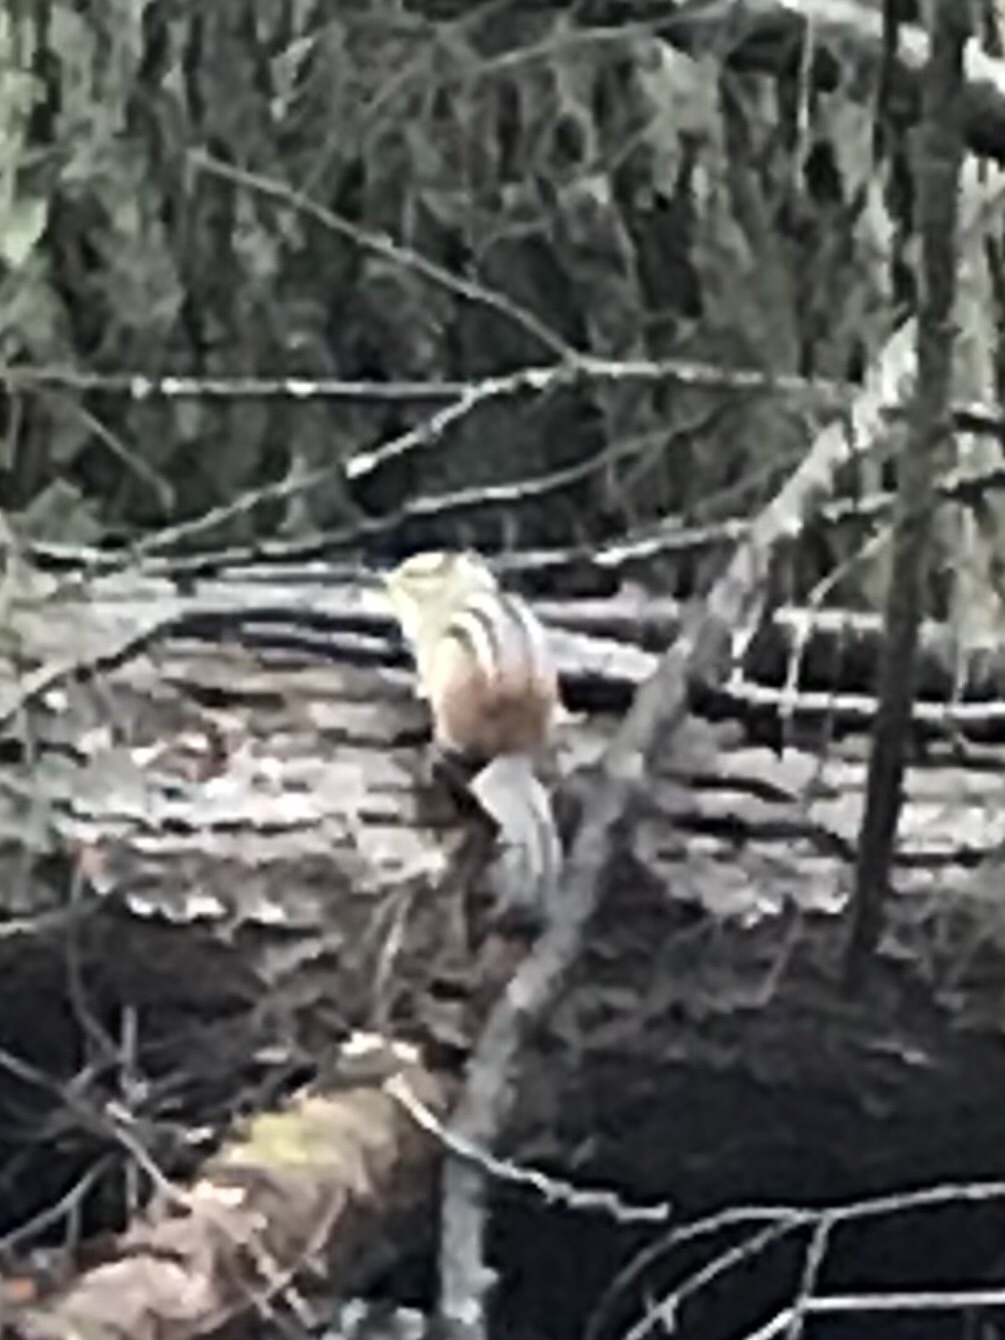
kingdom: Animalia
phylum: Chordata
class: Mammalia
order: Rodentia
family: Sciuridae
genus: Tamias
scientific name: Tamias striatus
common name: Eastern chipmunk
